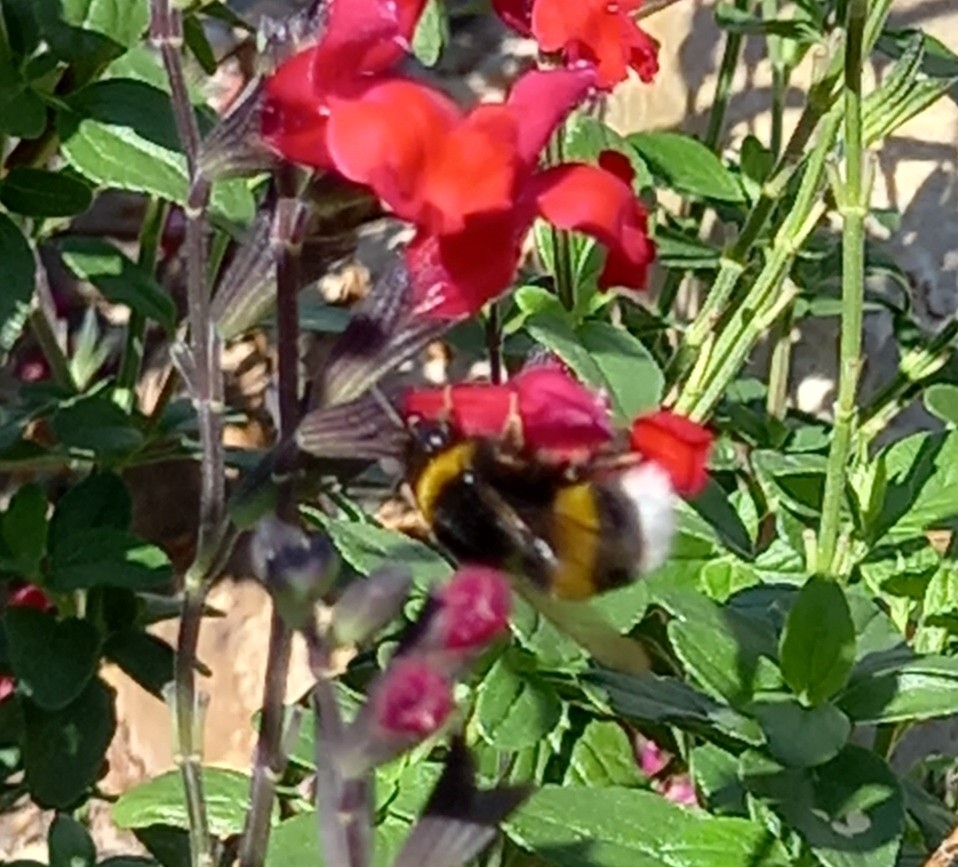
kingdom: Animalia
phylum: Arthropoda
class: Insecta
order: Hymenoptera
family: Apidae
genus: Bombus
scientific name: Bombus terrestris
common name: Buff-tailed bumblebee
